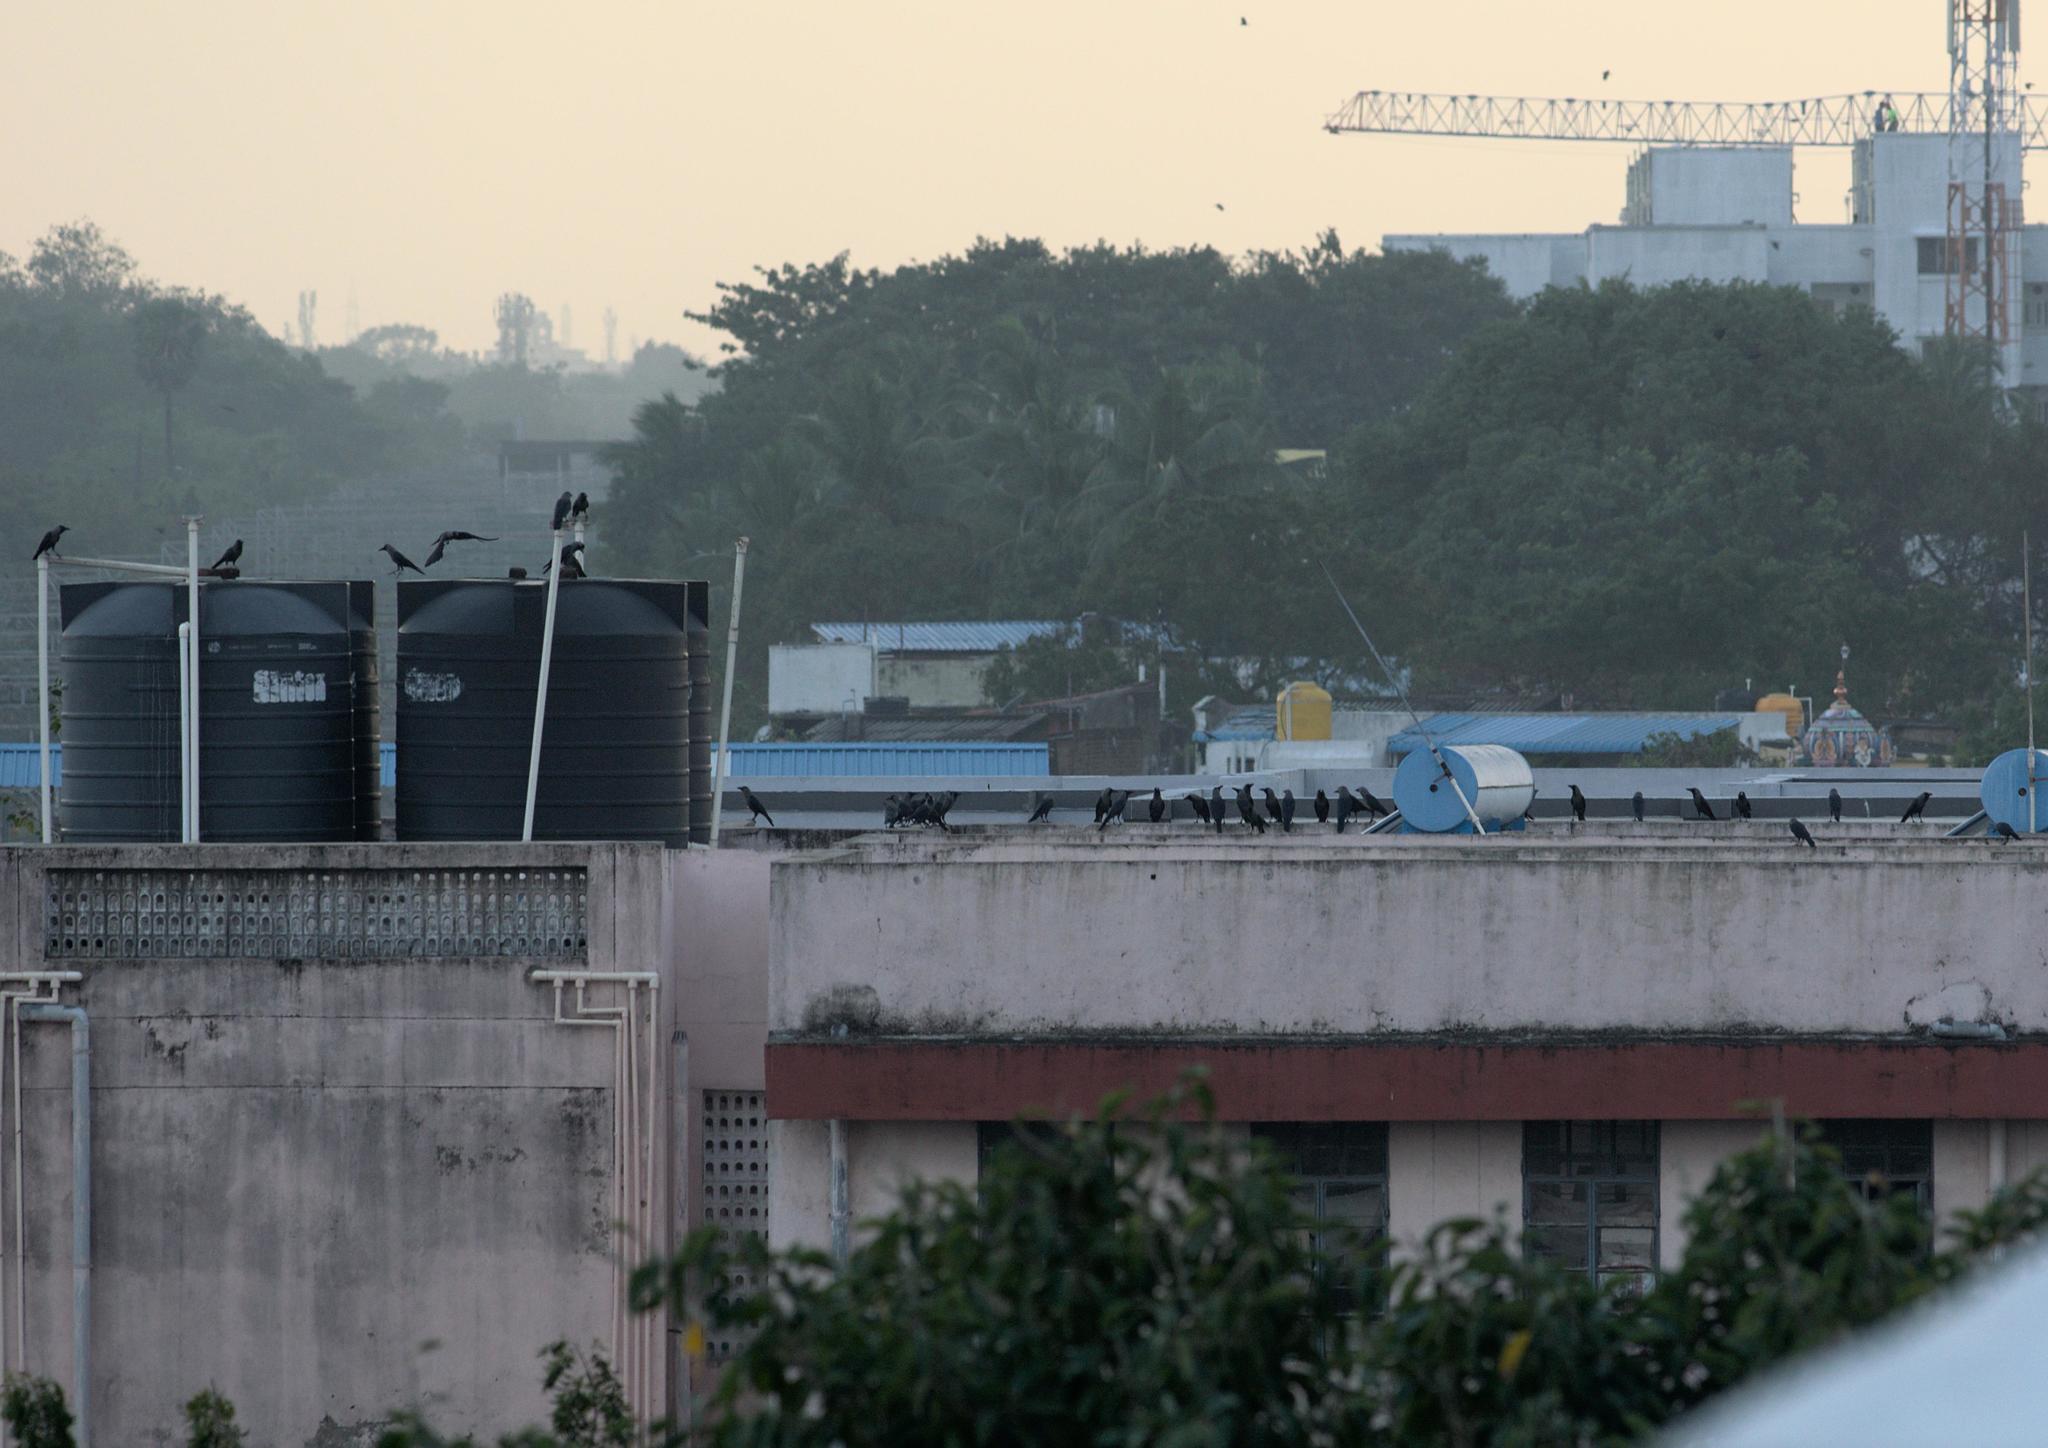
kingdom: Animalia
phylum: Chordata
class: Aves
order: Passeriformes
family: Corvidae
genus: Corvus
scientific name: Corvus splendens
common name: House crow
